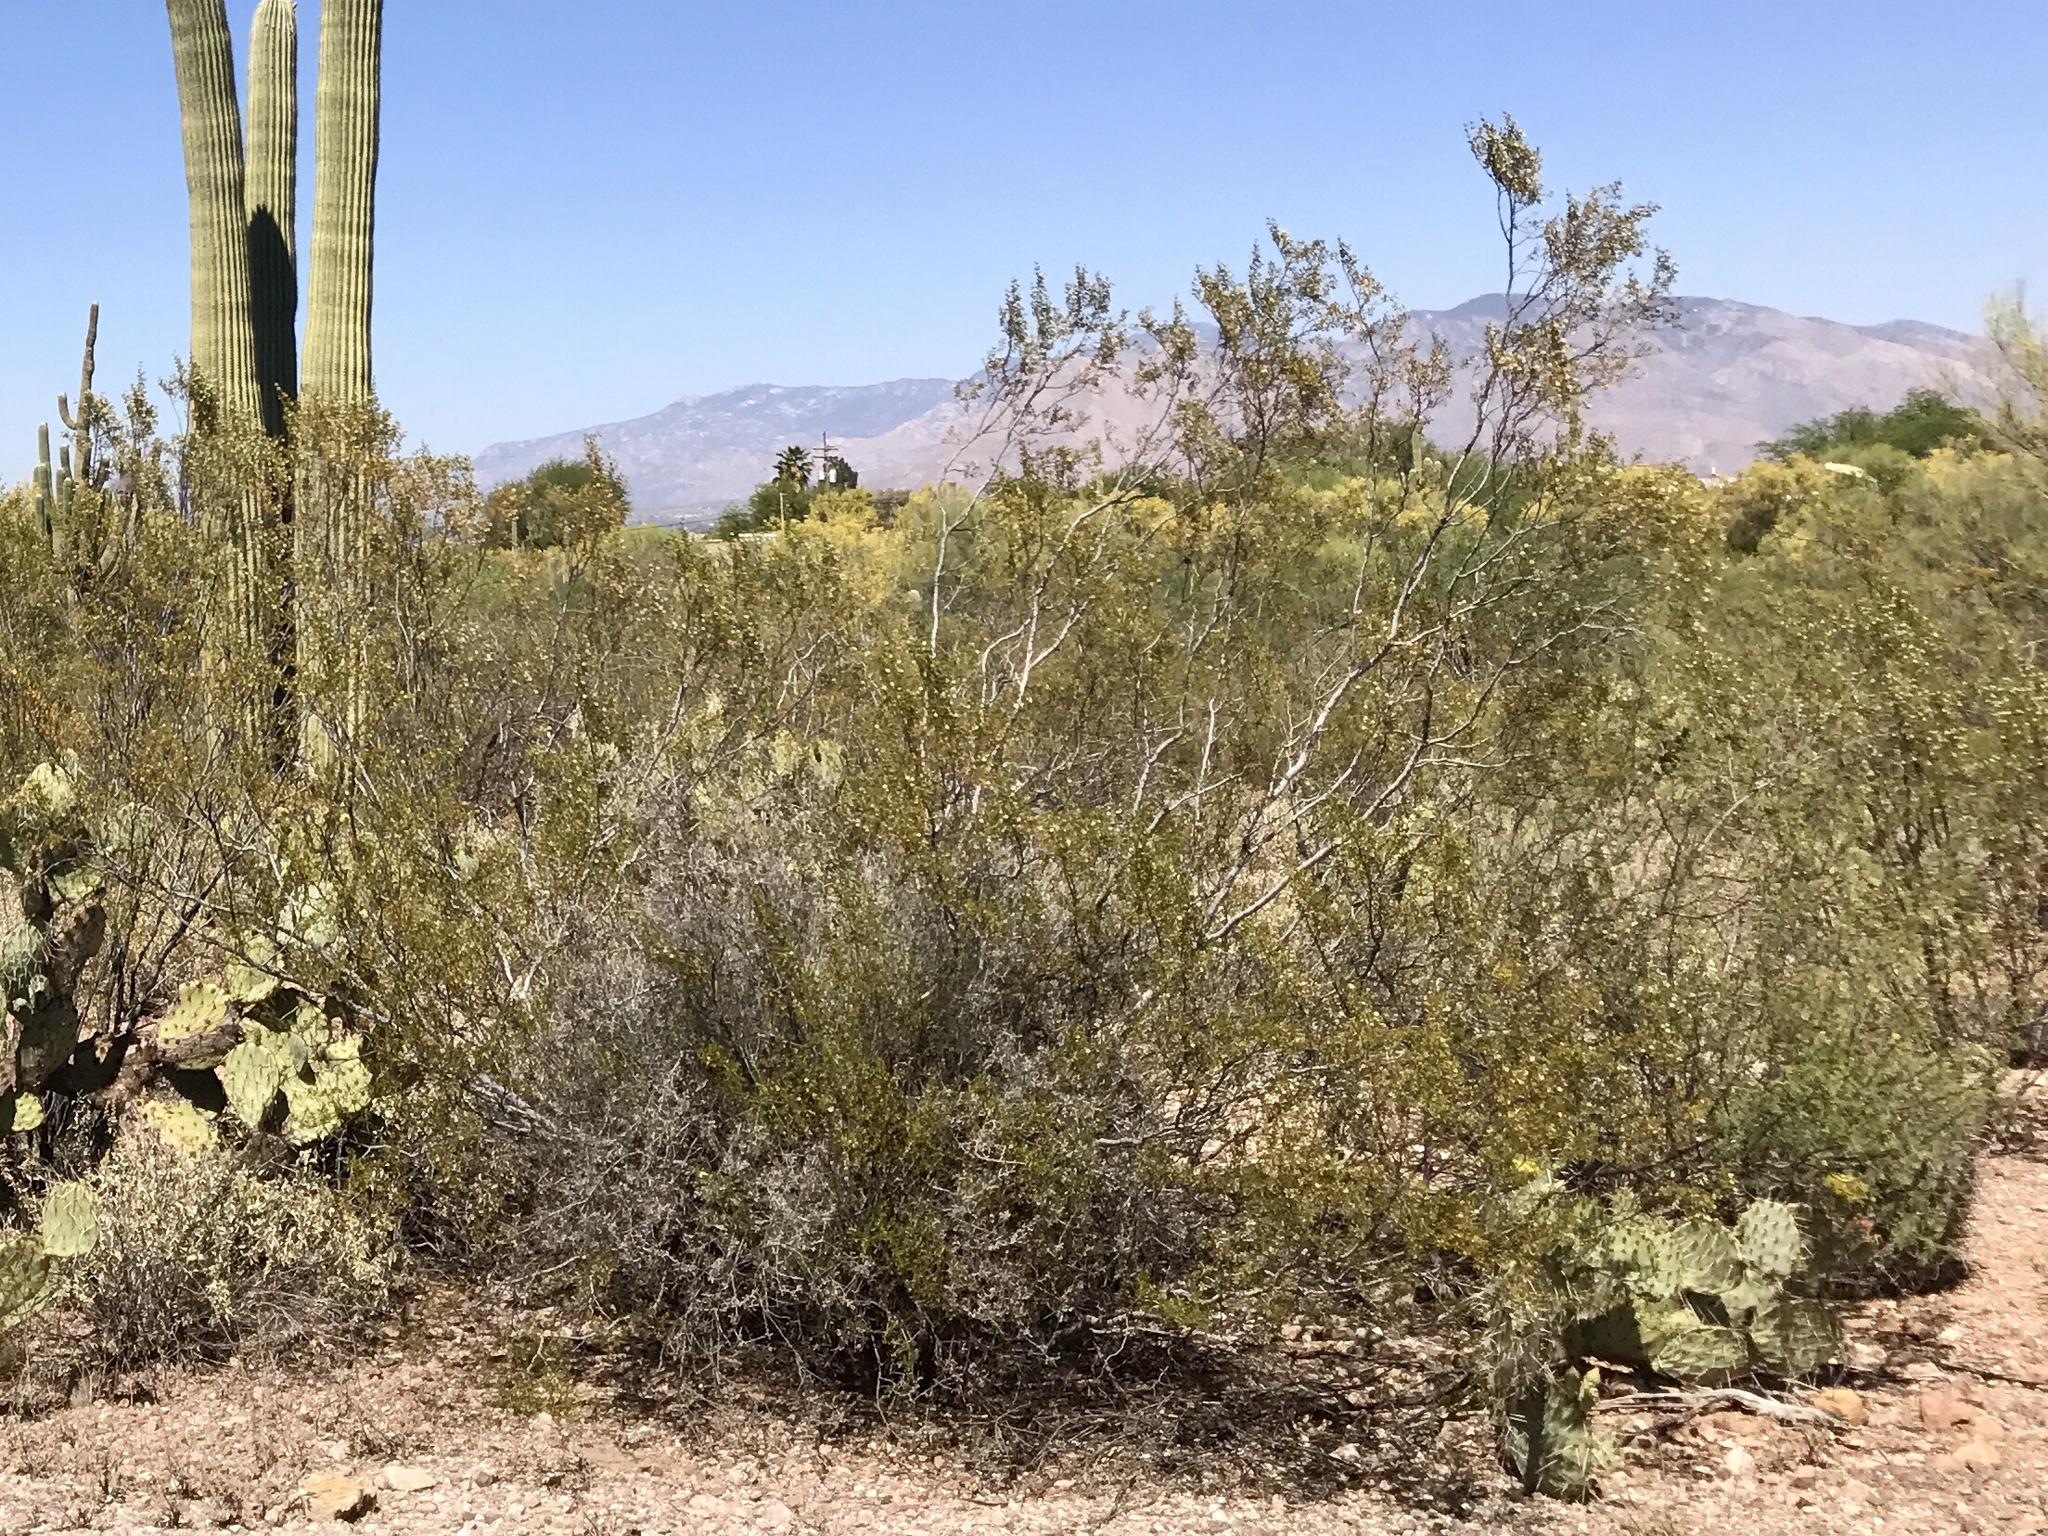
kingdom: Plantae
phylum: Tracheophyta
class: Magnoliopsida
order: Zygophyllales
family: Zygophyllaceae
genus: Larrea
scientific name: Larrea tridentata
